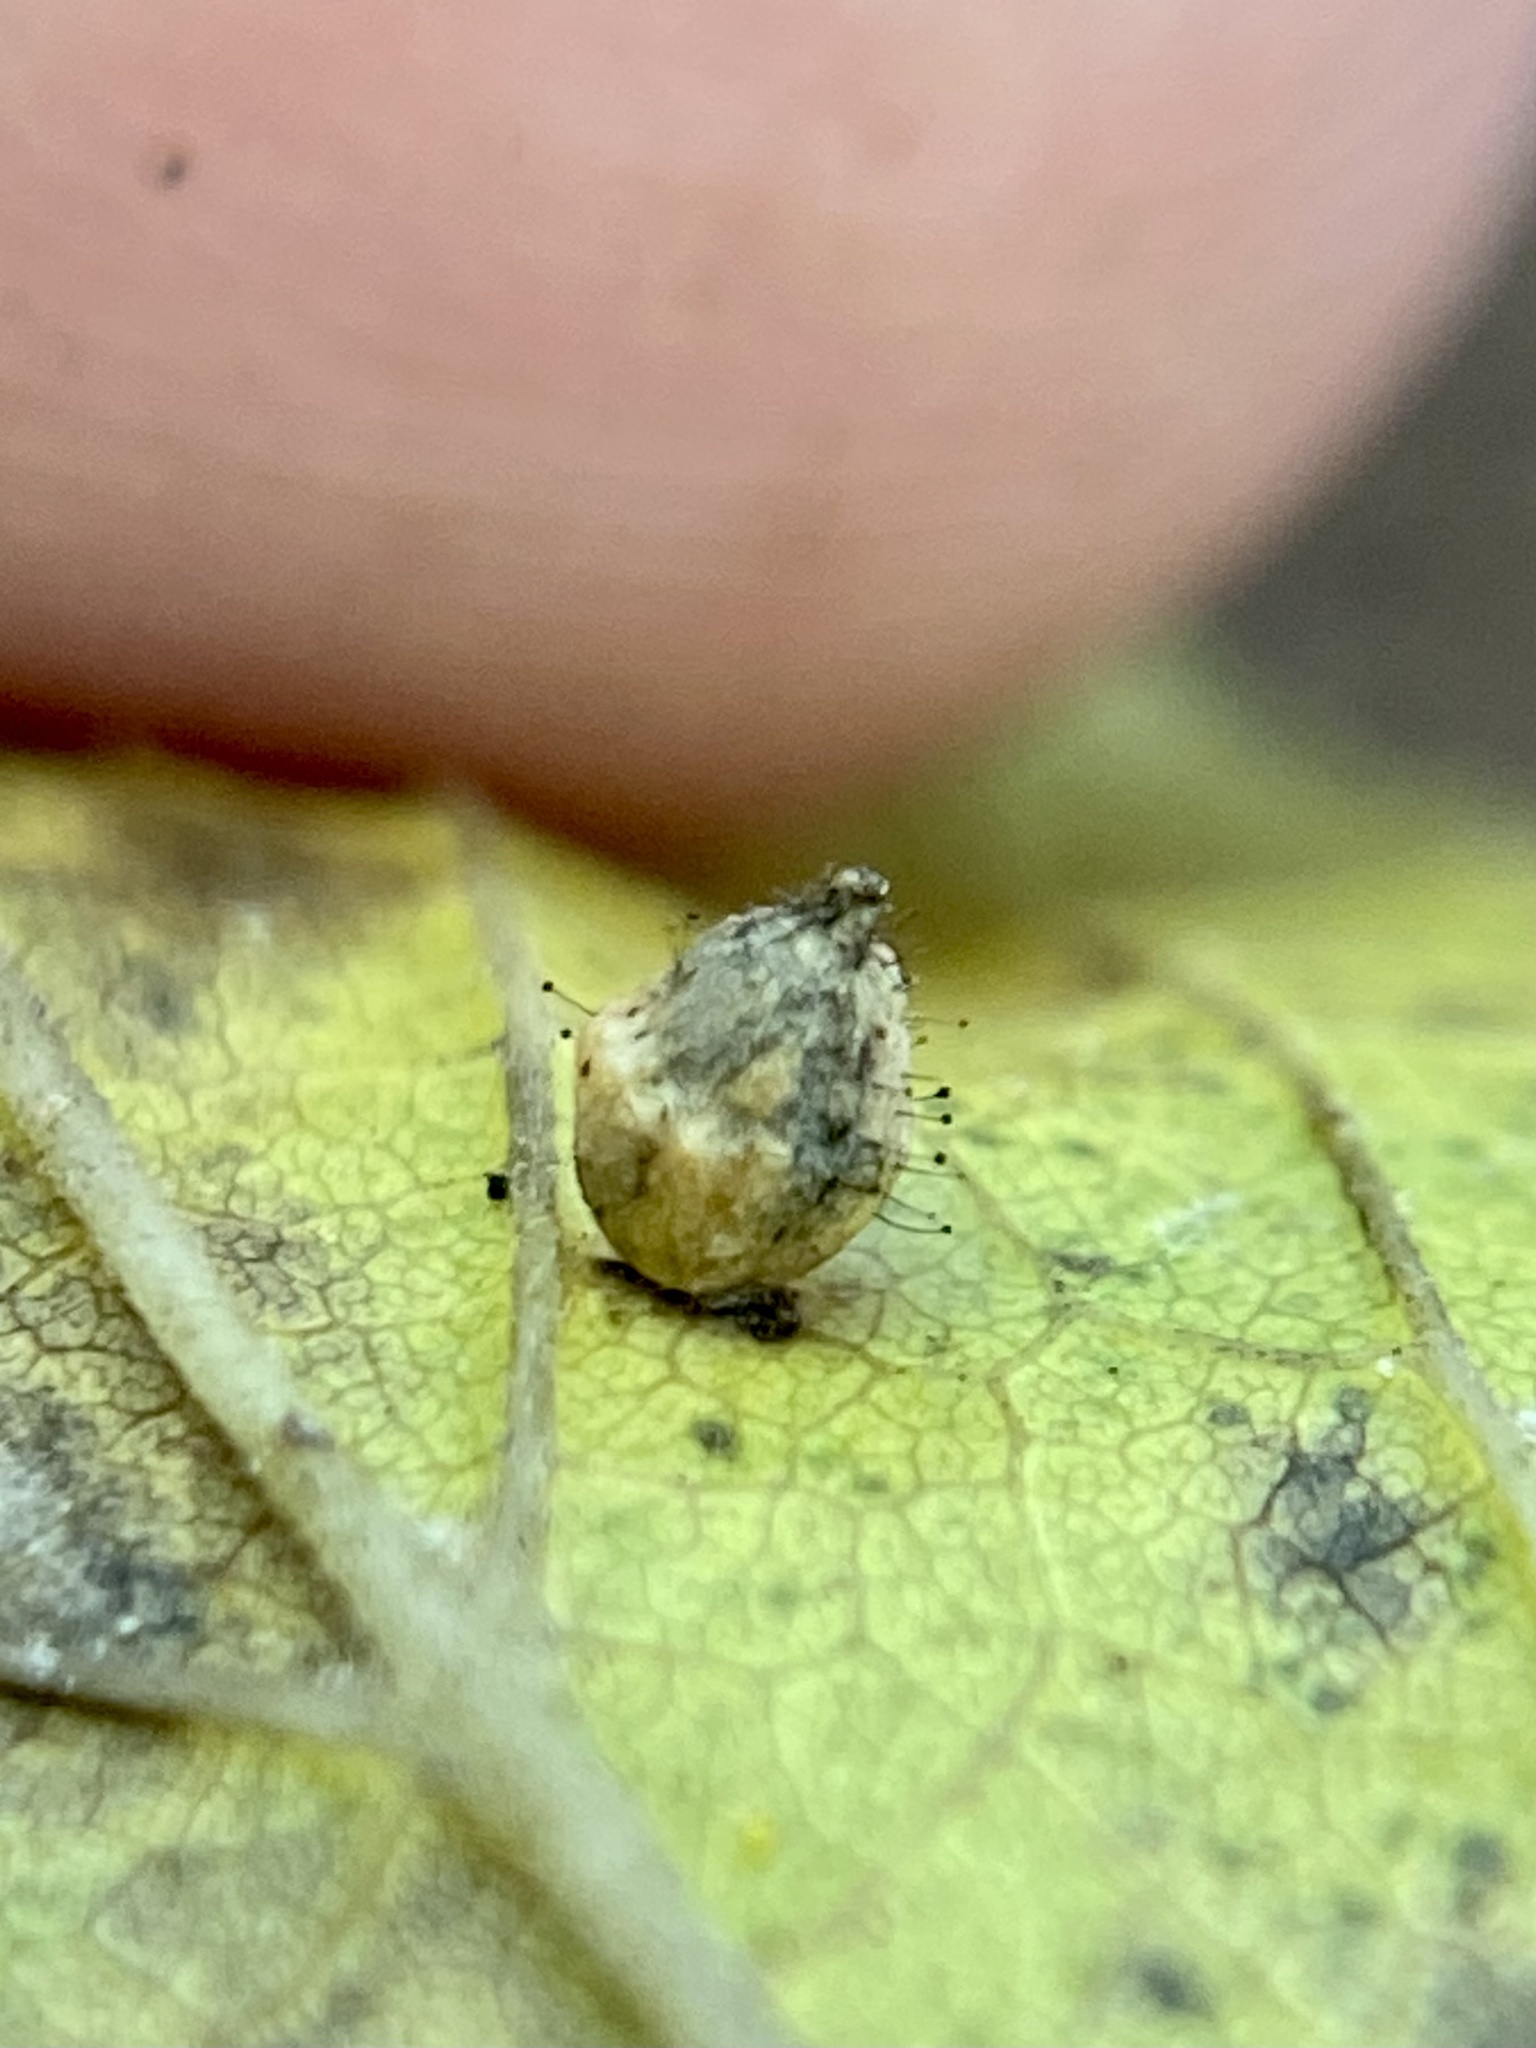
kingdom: Animalia
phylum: Arthropoda
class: Insecta
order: Diptera
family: Cecidomyiidae
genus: Celticecis
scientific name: Celticecis globosa
